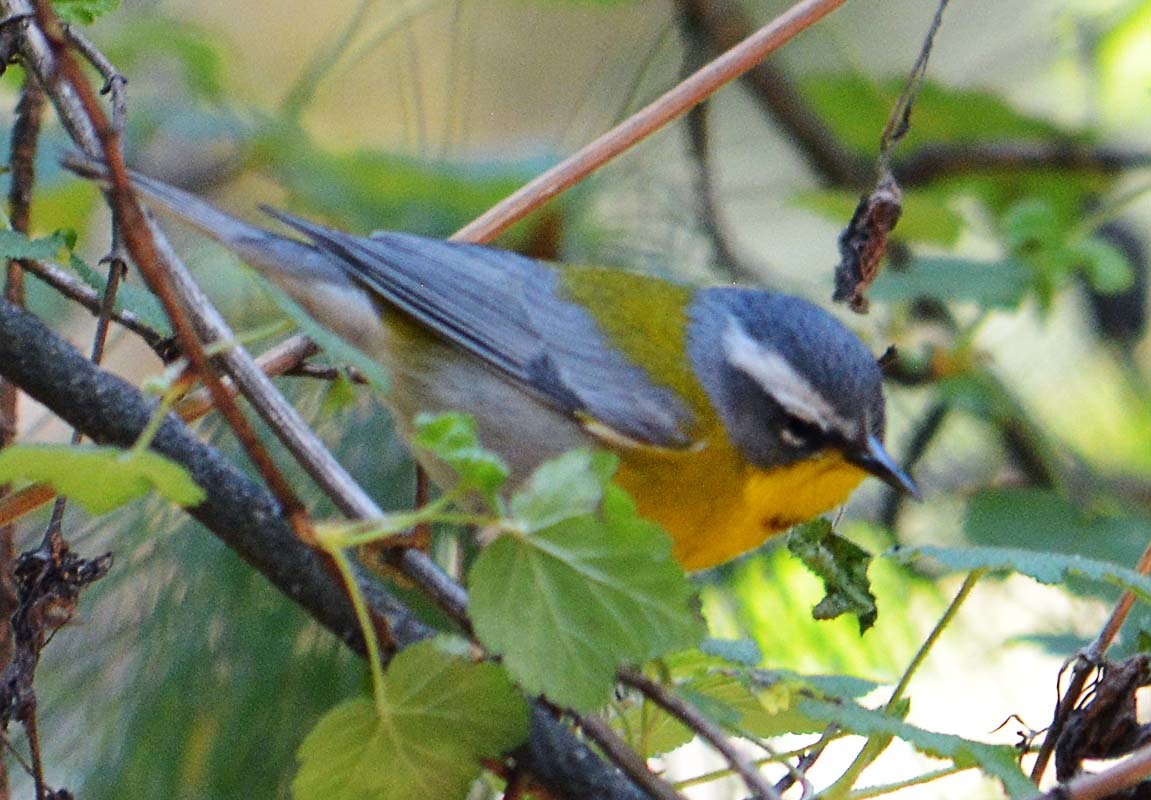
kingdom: Animalia
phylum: Chordata
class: Aves
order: Passeriformes
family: Parulidae
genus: Oreothlypis
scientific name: Oreothlypis superciliosa
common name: Crescent-chested warbler
